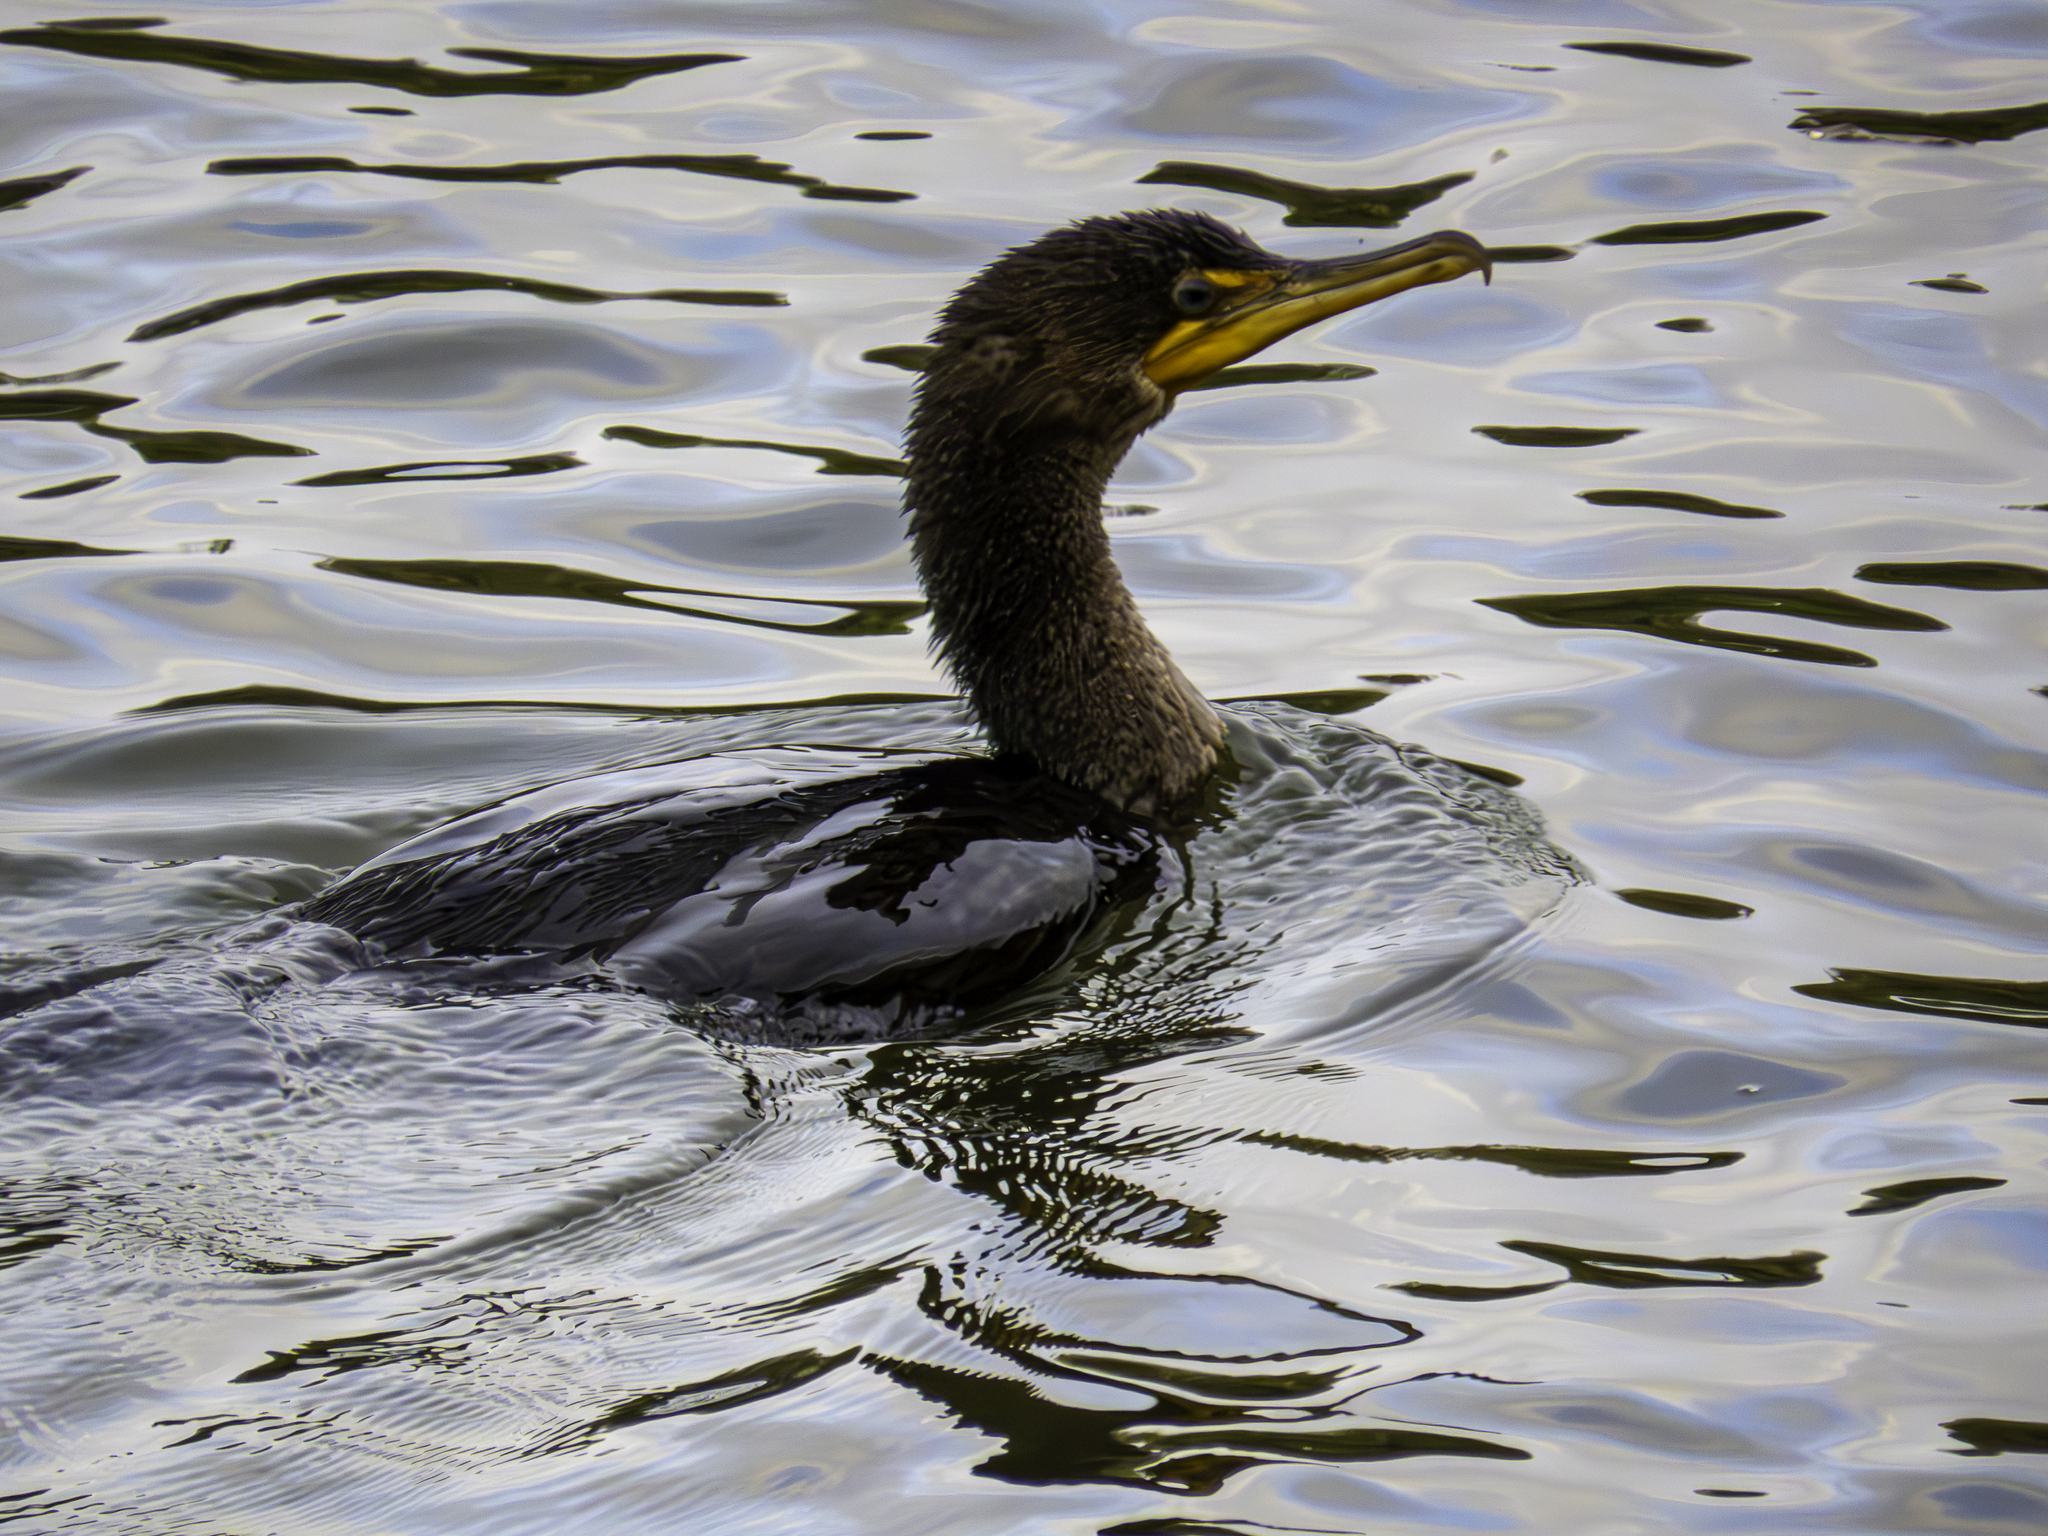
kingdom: Animalia
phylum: Chordata
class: Aves
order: Suliformes
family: Phalacrocoracidae
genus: Phalacrocorax
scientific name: Phalacrocorax auritus
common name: Double-crested cormorant
